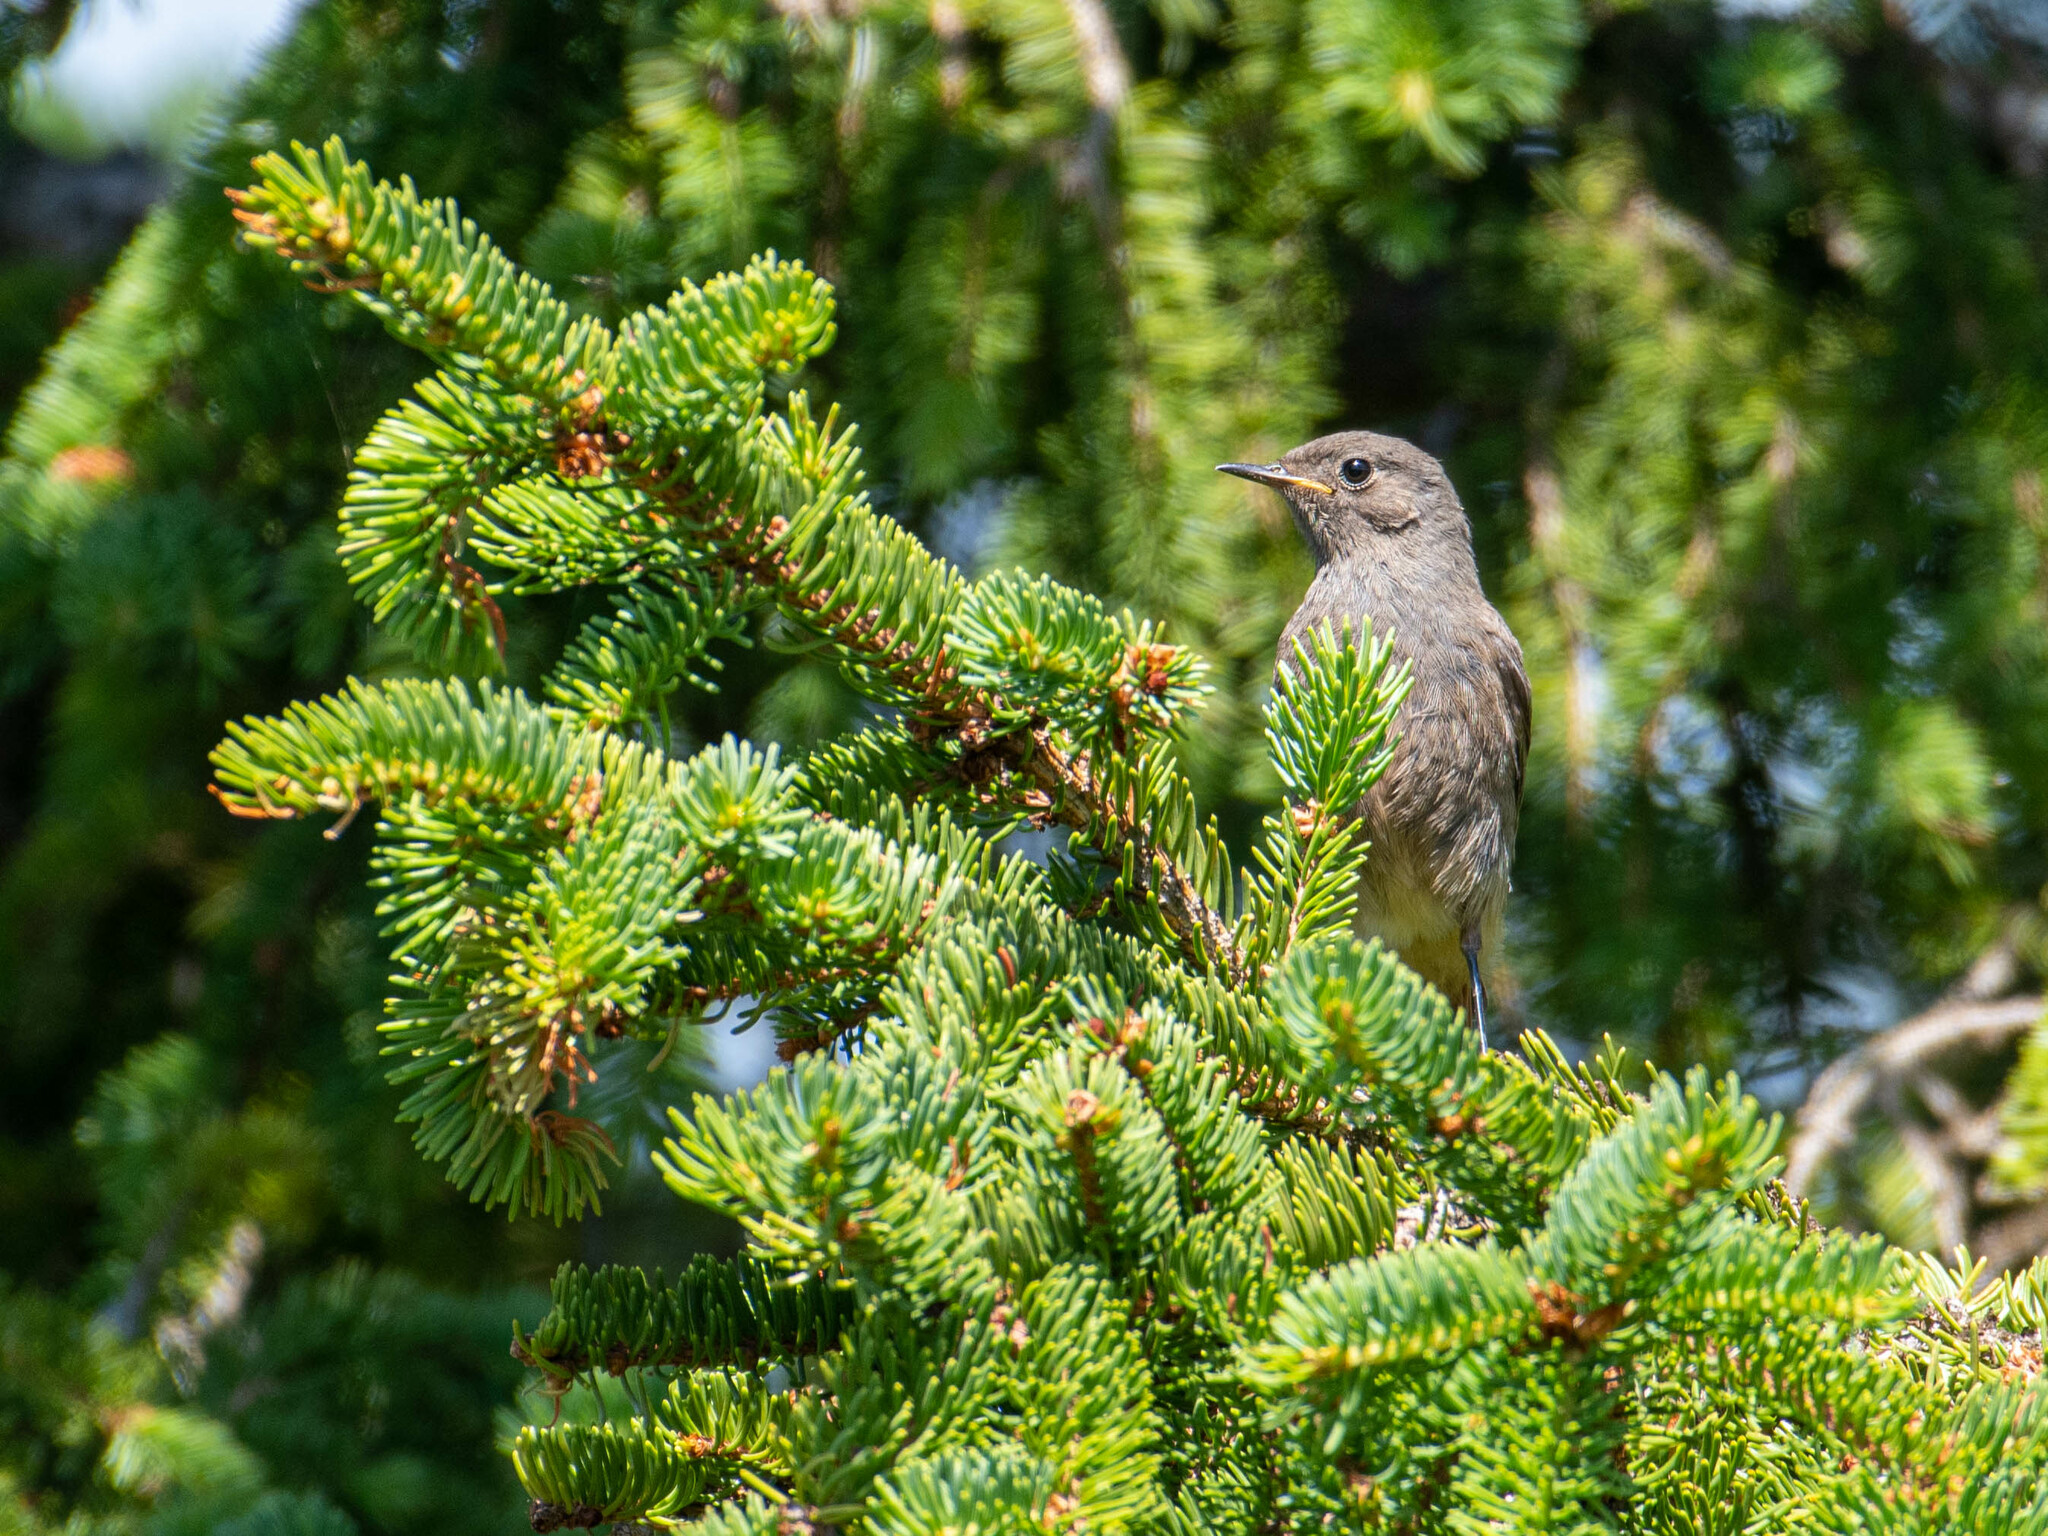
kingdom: Animalia
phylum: Chordata
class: Aves
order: Passeriformes
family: Muscicapidae
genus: Phoenicurus
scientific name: Phoenicurus ochruros
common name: Black redstart
